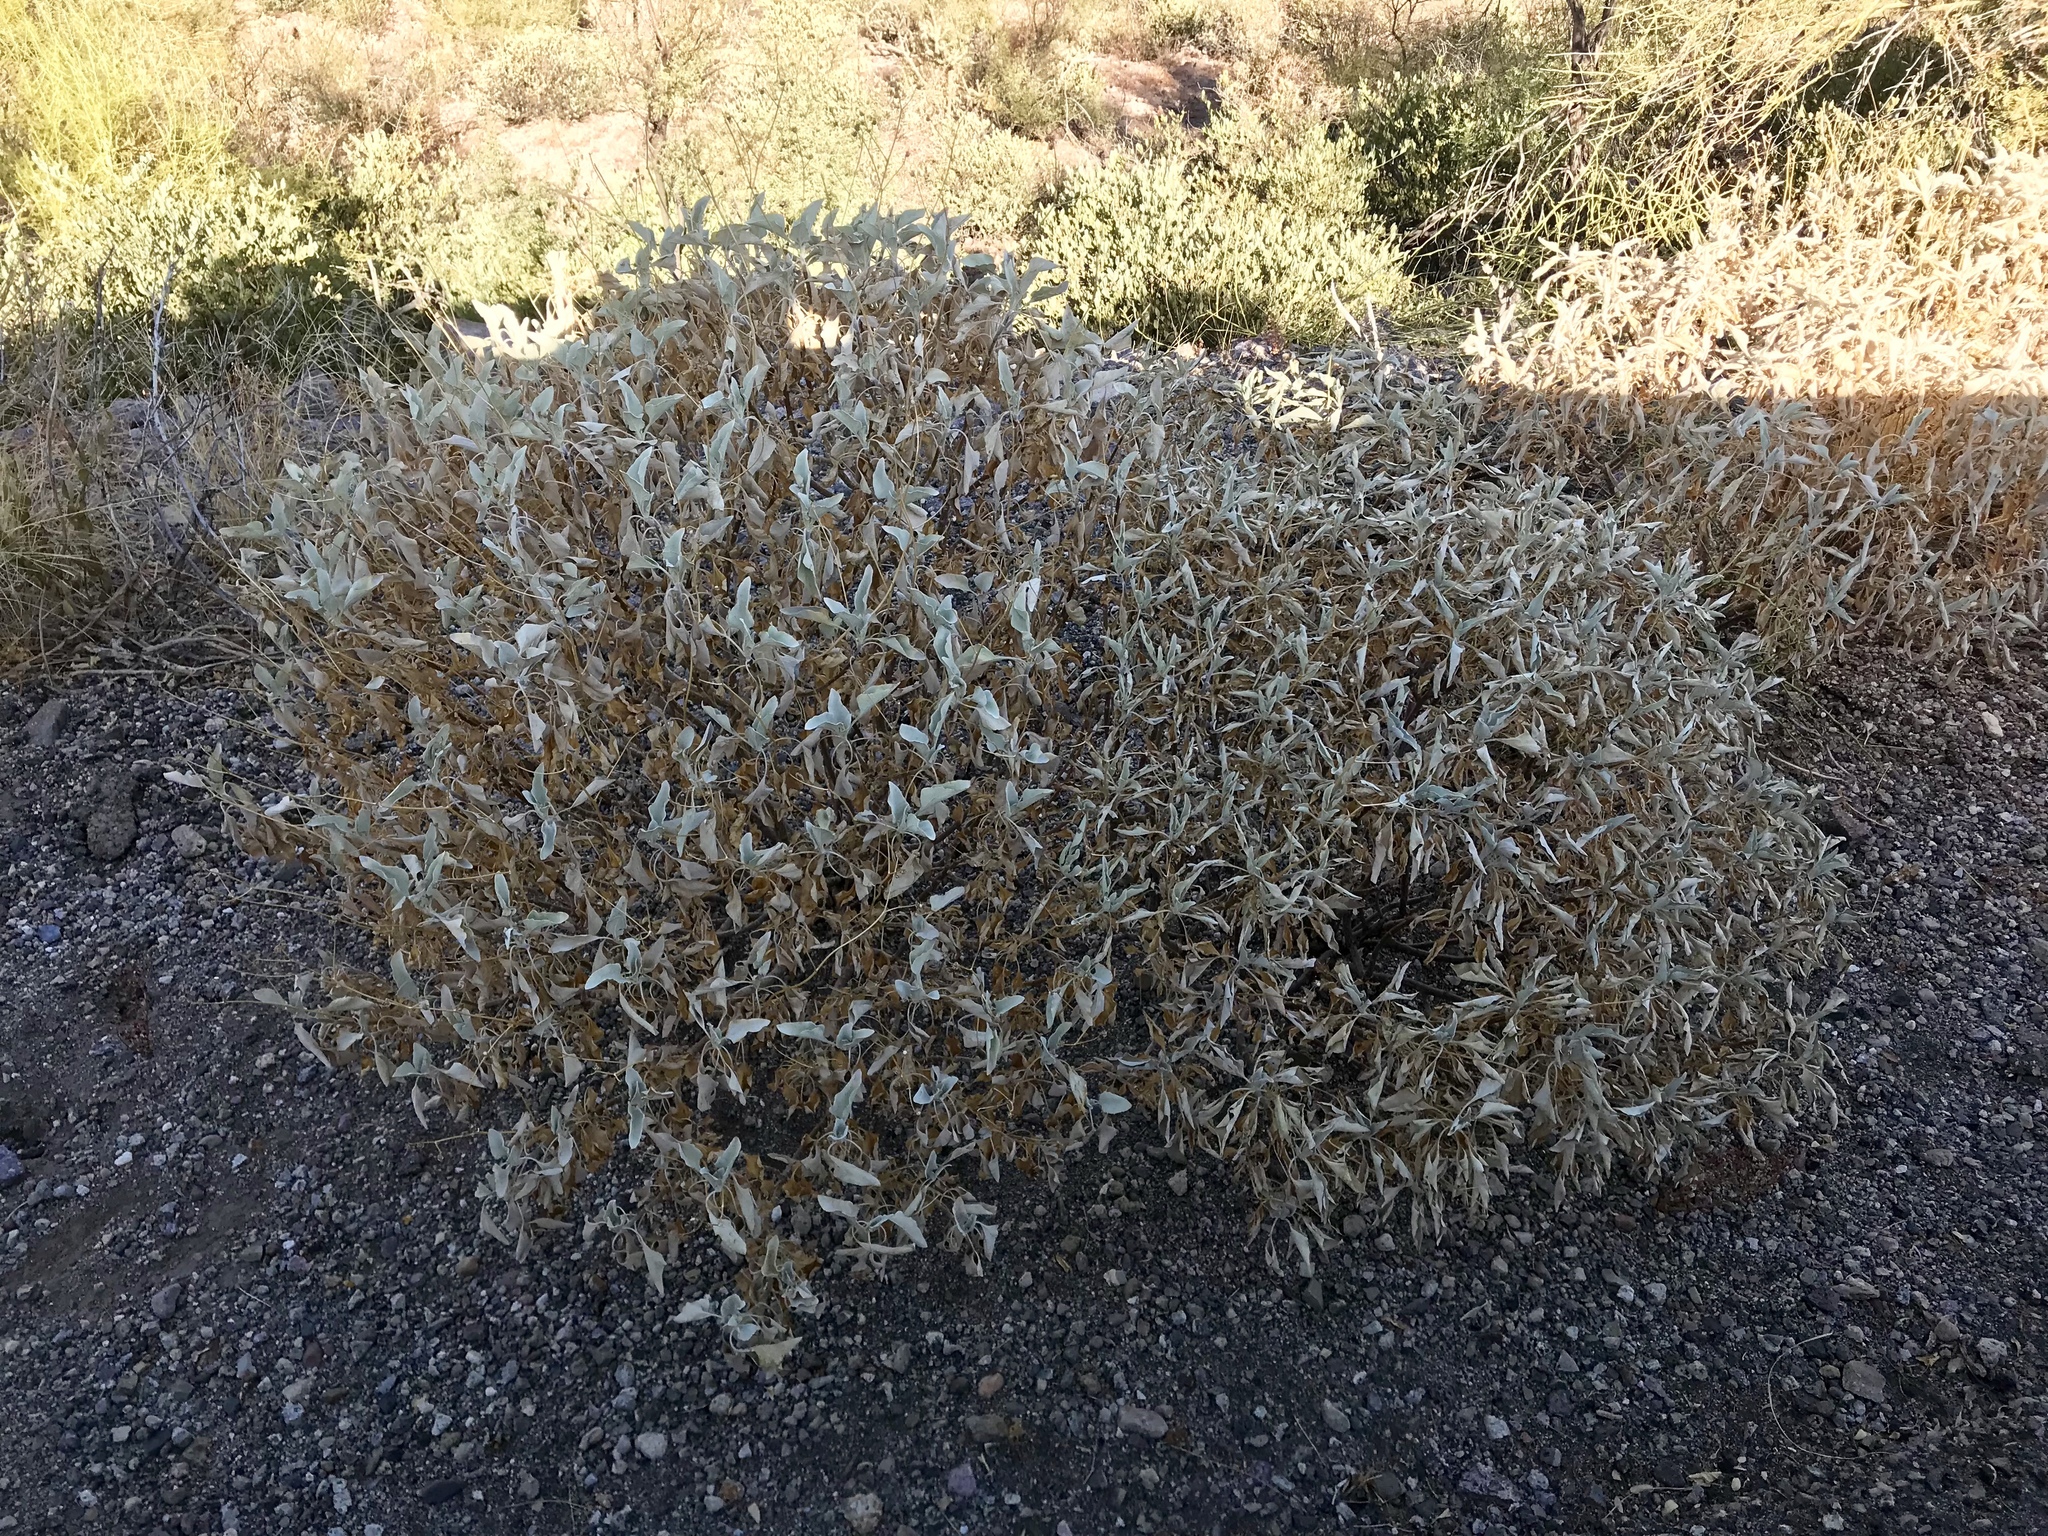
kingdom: Plantae
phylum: Tracheophyta
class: Magnoliopsida
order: Asterales
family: Asteraceae
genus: Encelia
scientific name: Encelia farinosa
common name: Brittlebush
